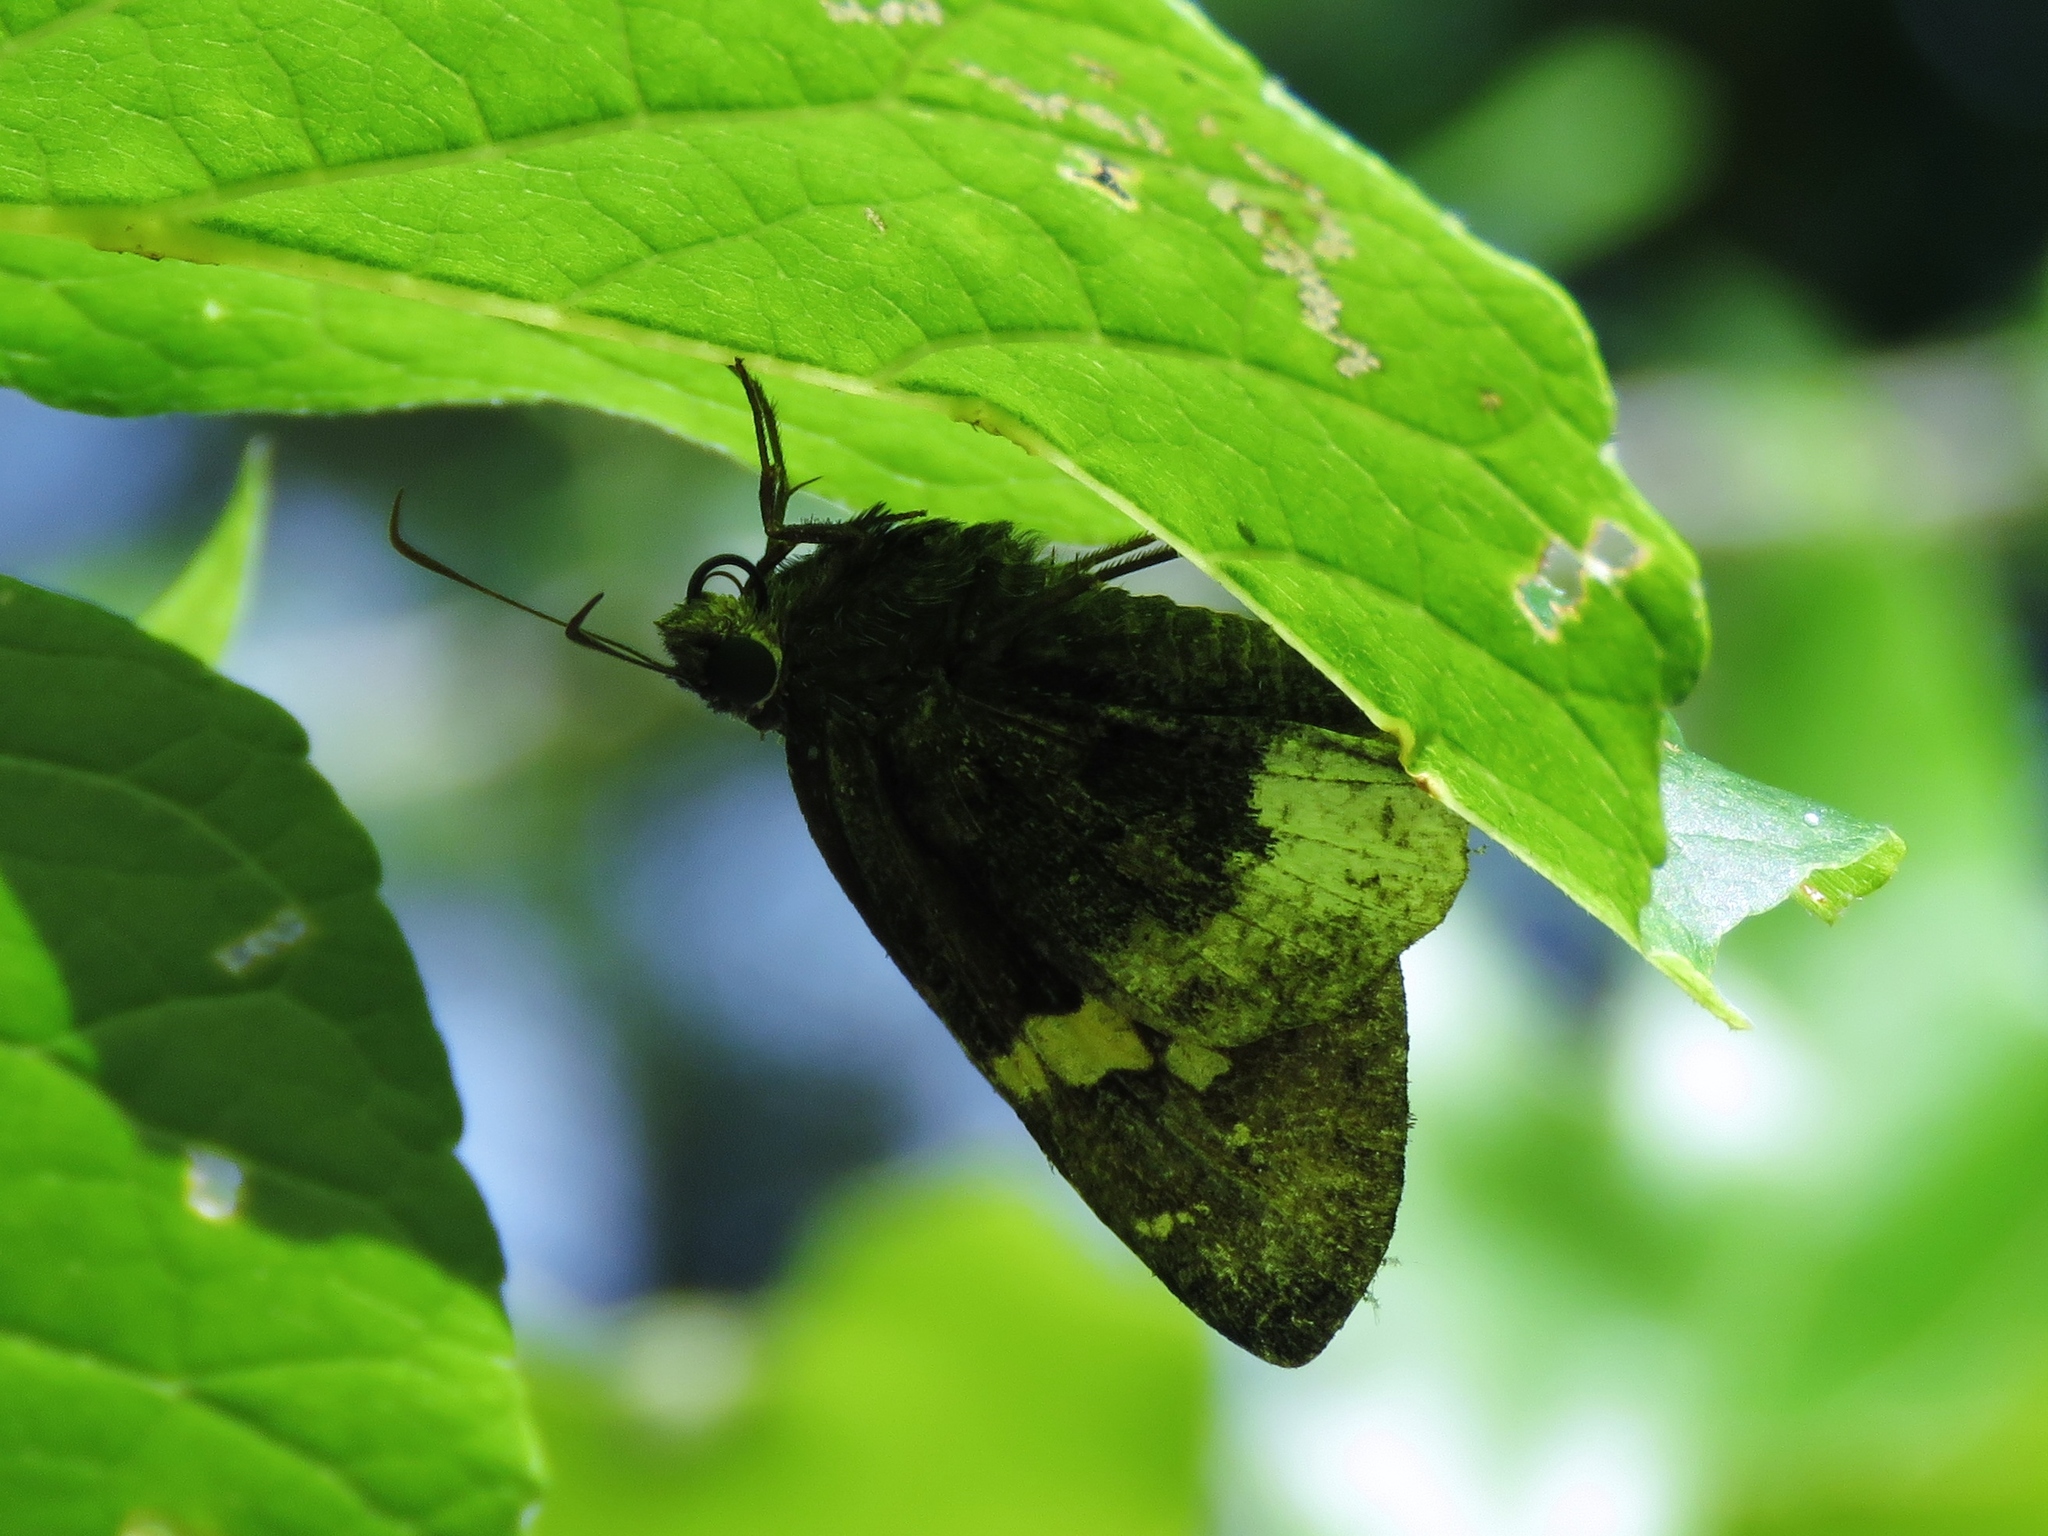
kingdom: Animalia
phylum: Arthropoda
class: Insecta
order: Lepidoptera
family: Hesperiidae
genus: Thorybes
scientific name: Thorybes lyciades
